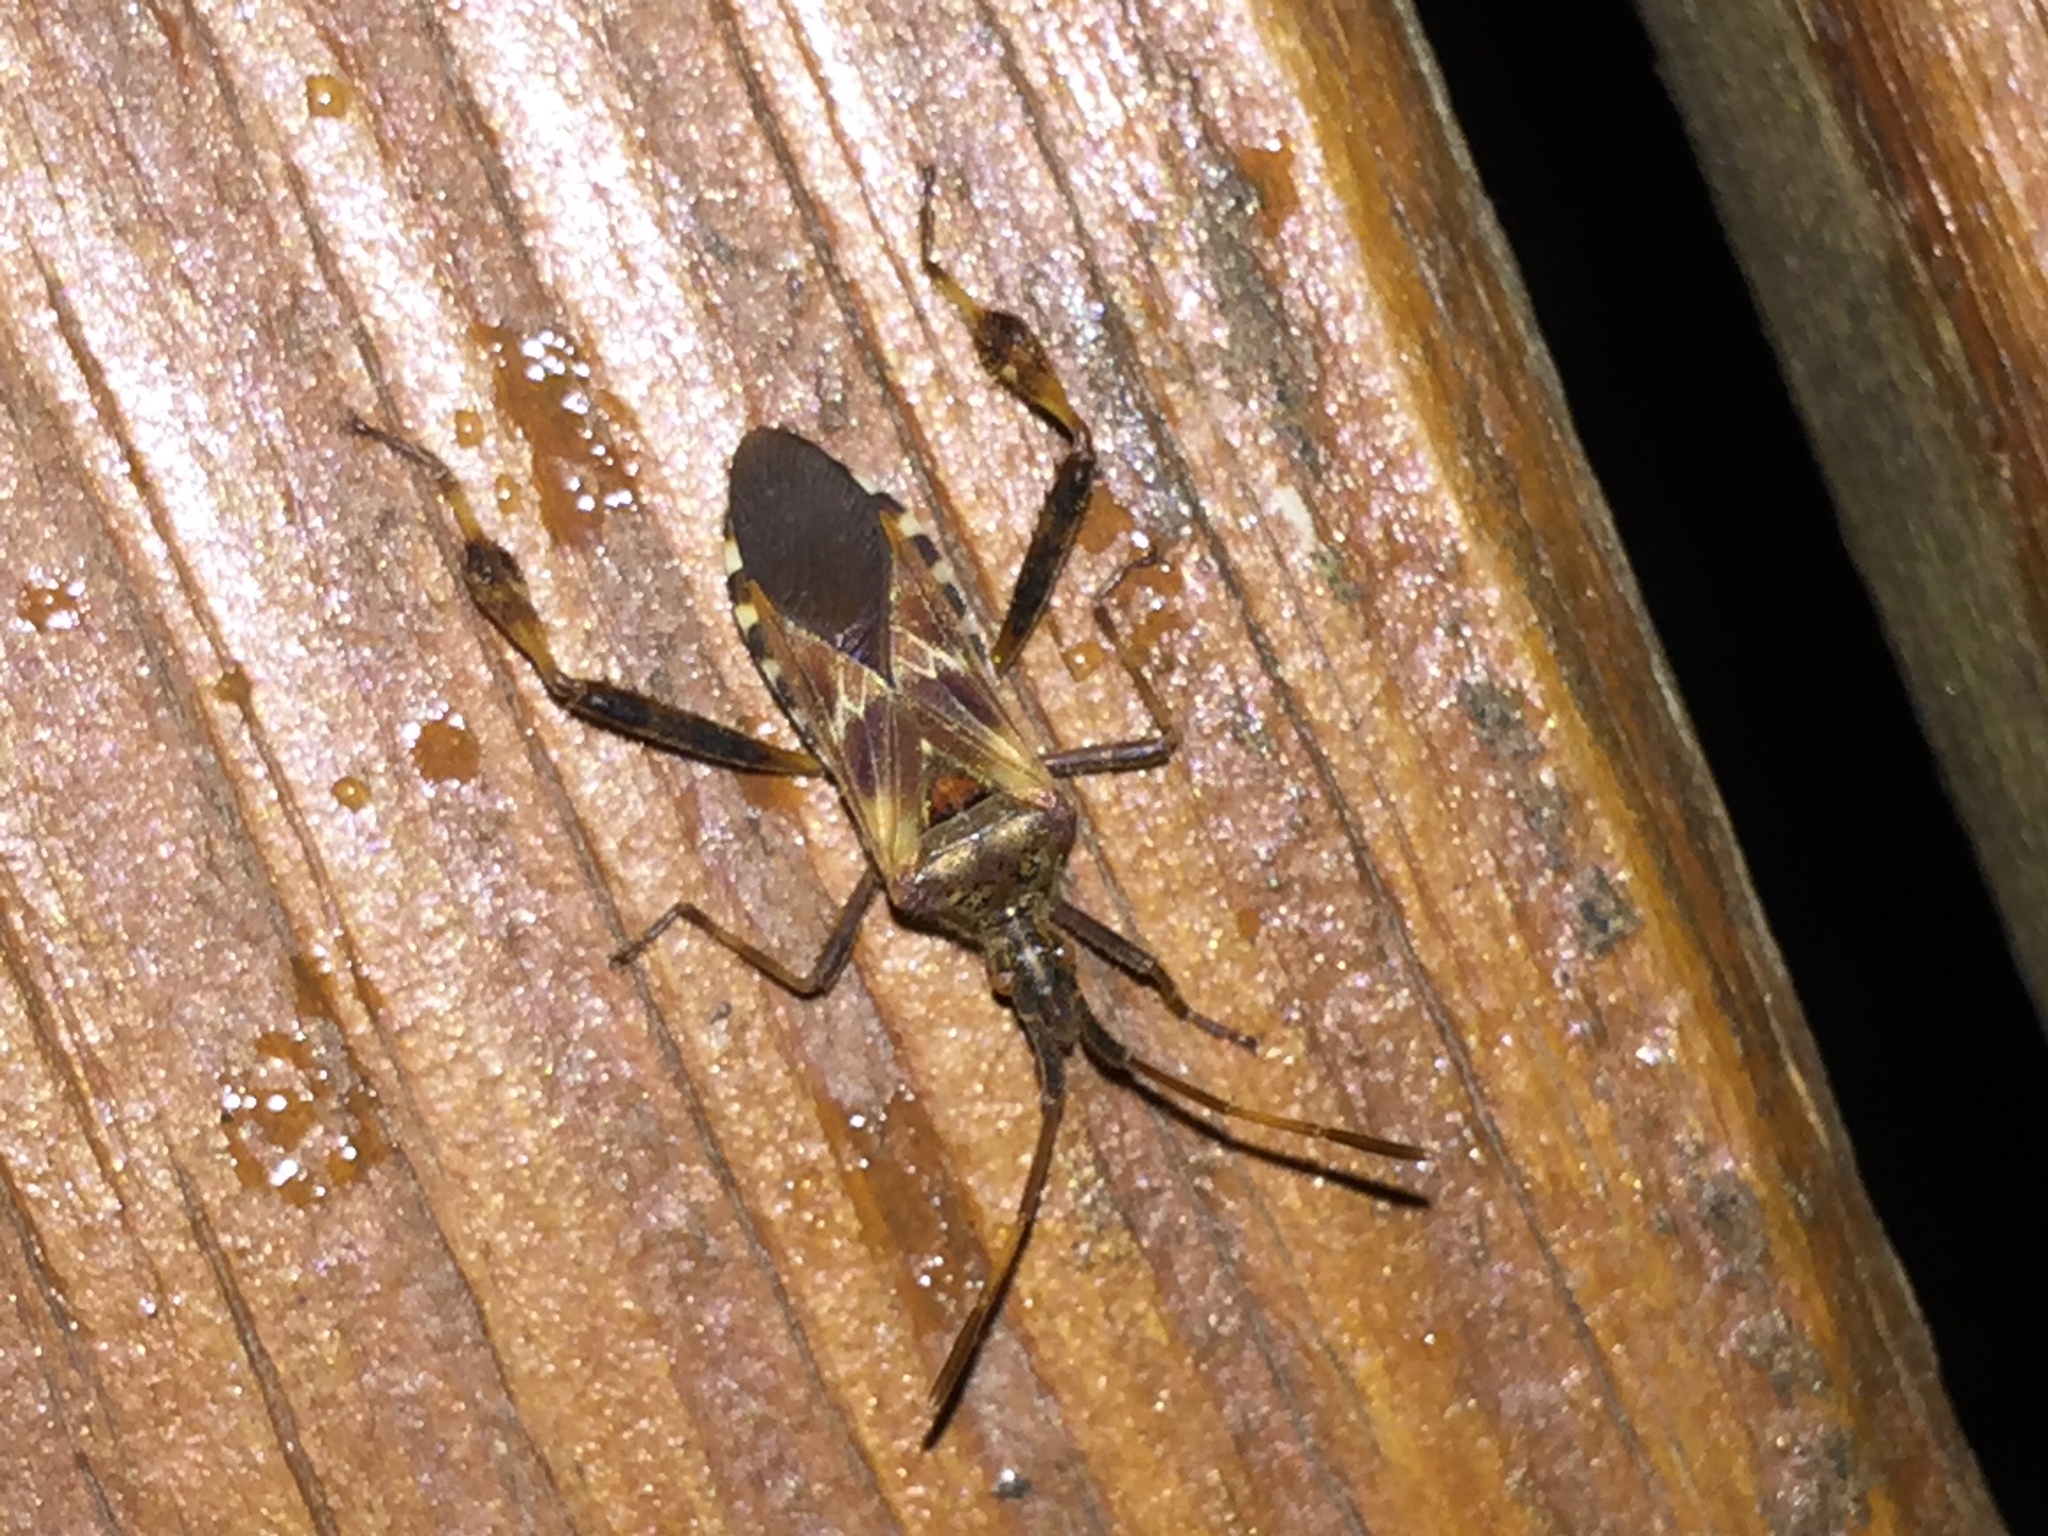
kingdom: Animalia
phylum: Arthropoda
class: Insecta
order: Hemiptera
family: Coreidae
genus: Leptoglossus
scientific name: Leptoglossus occidentalis
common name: Western conifer-seed bug
